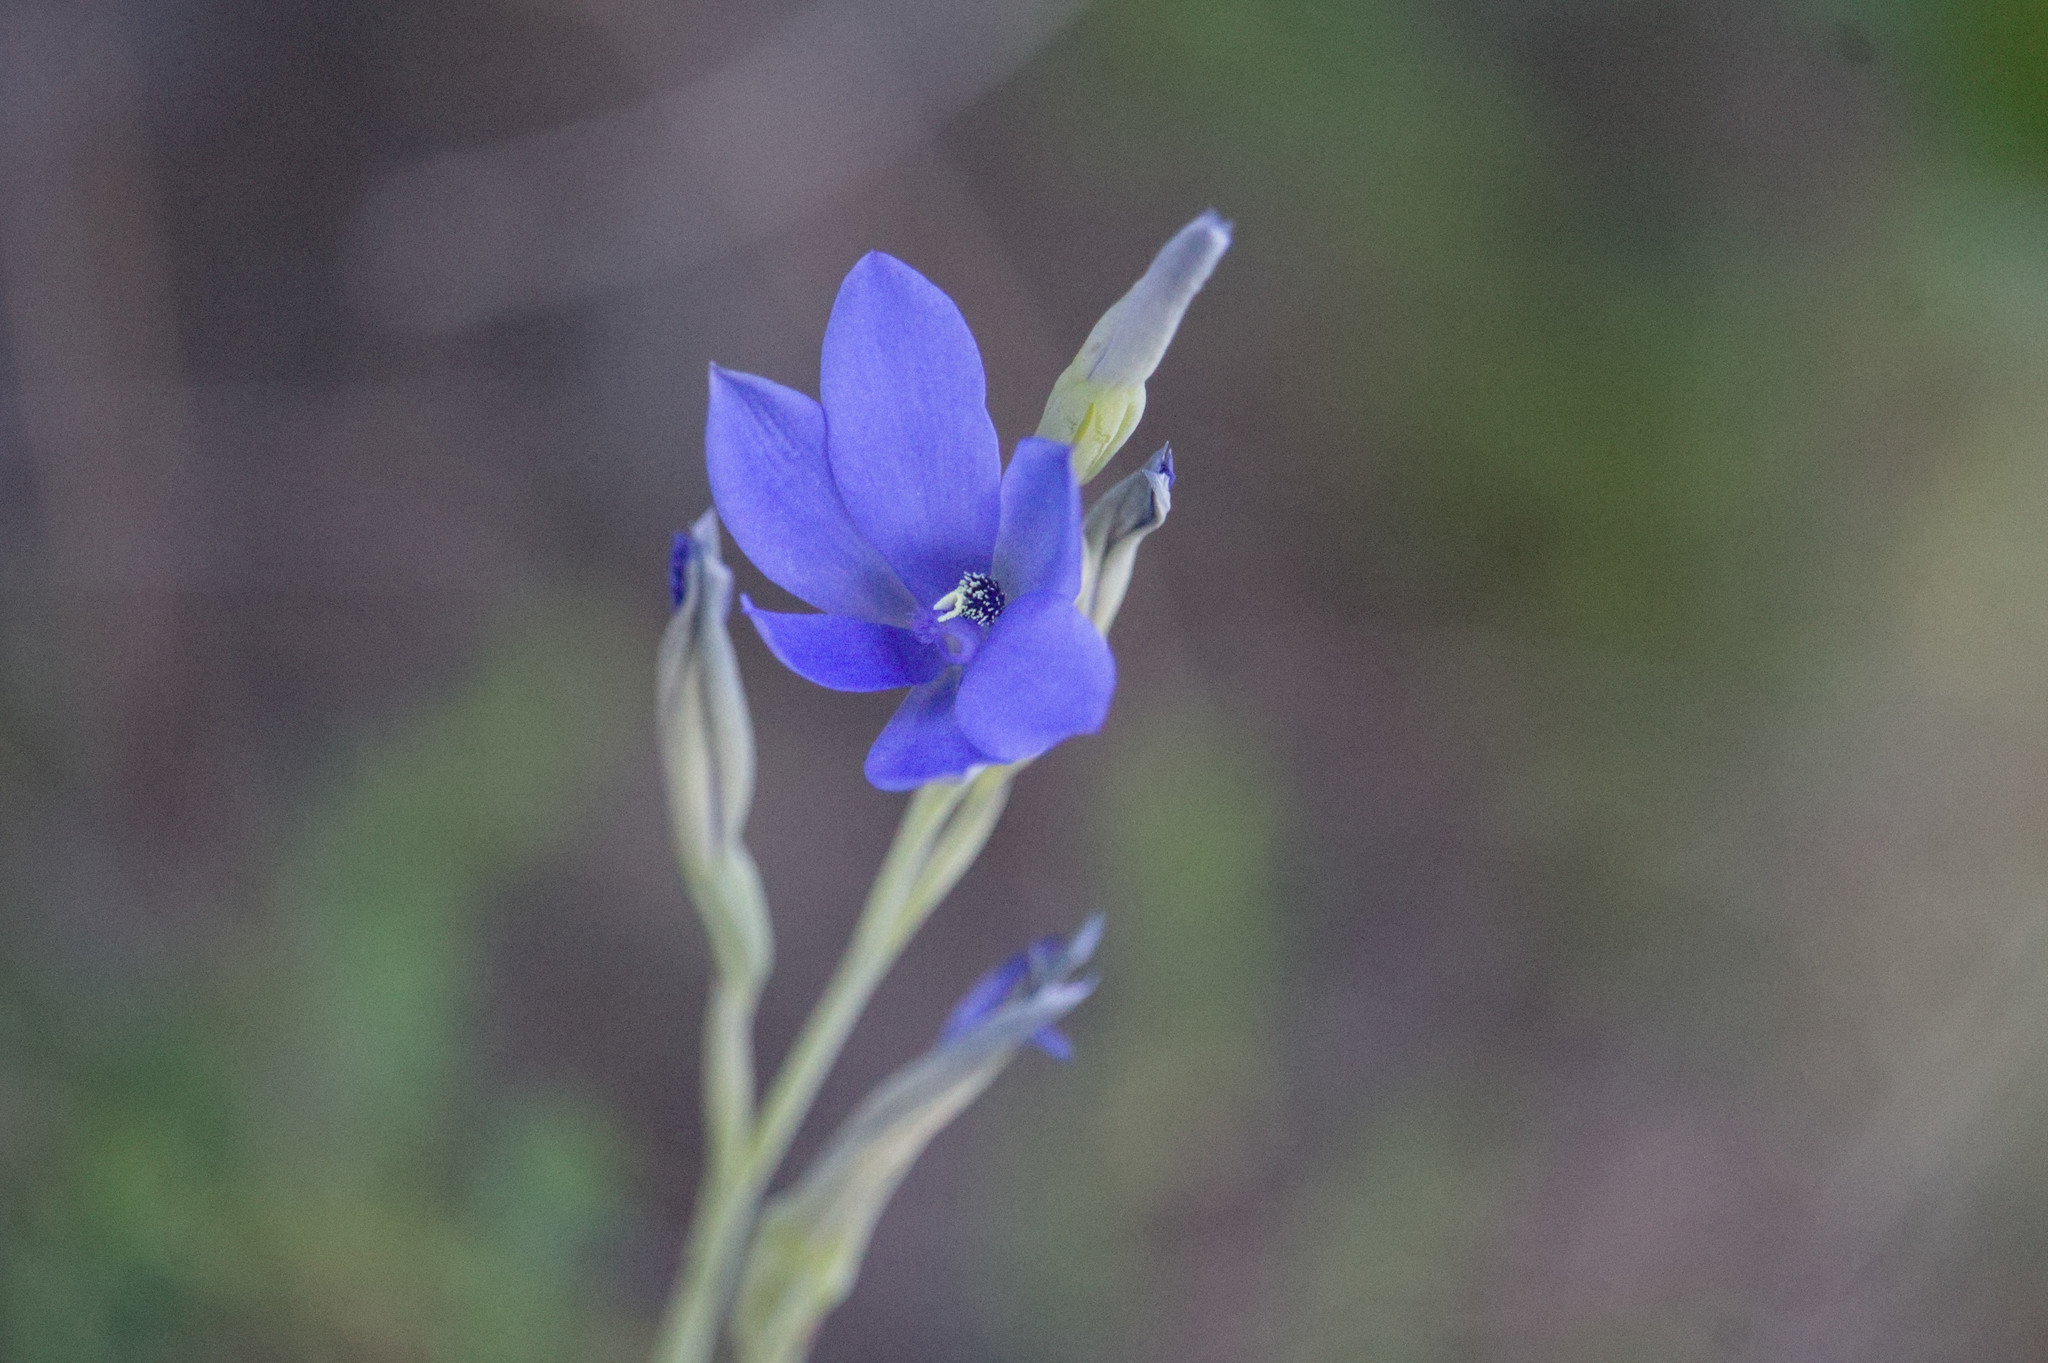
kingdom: Plantae
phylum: Tracheophyta
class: Liliopsida
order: Asparagales
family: Orchidaceae
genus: Thelymitra
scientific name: Thelymitra crinita
